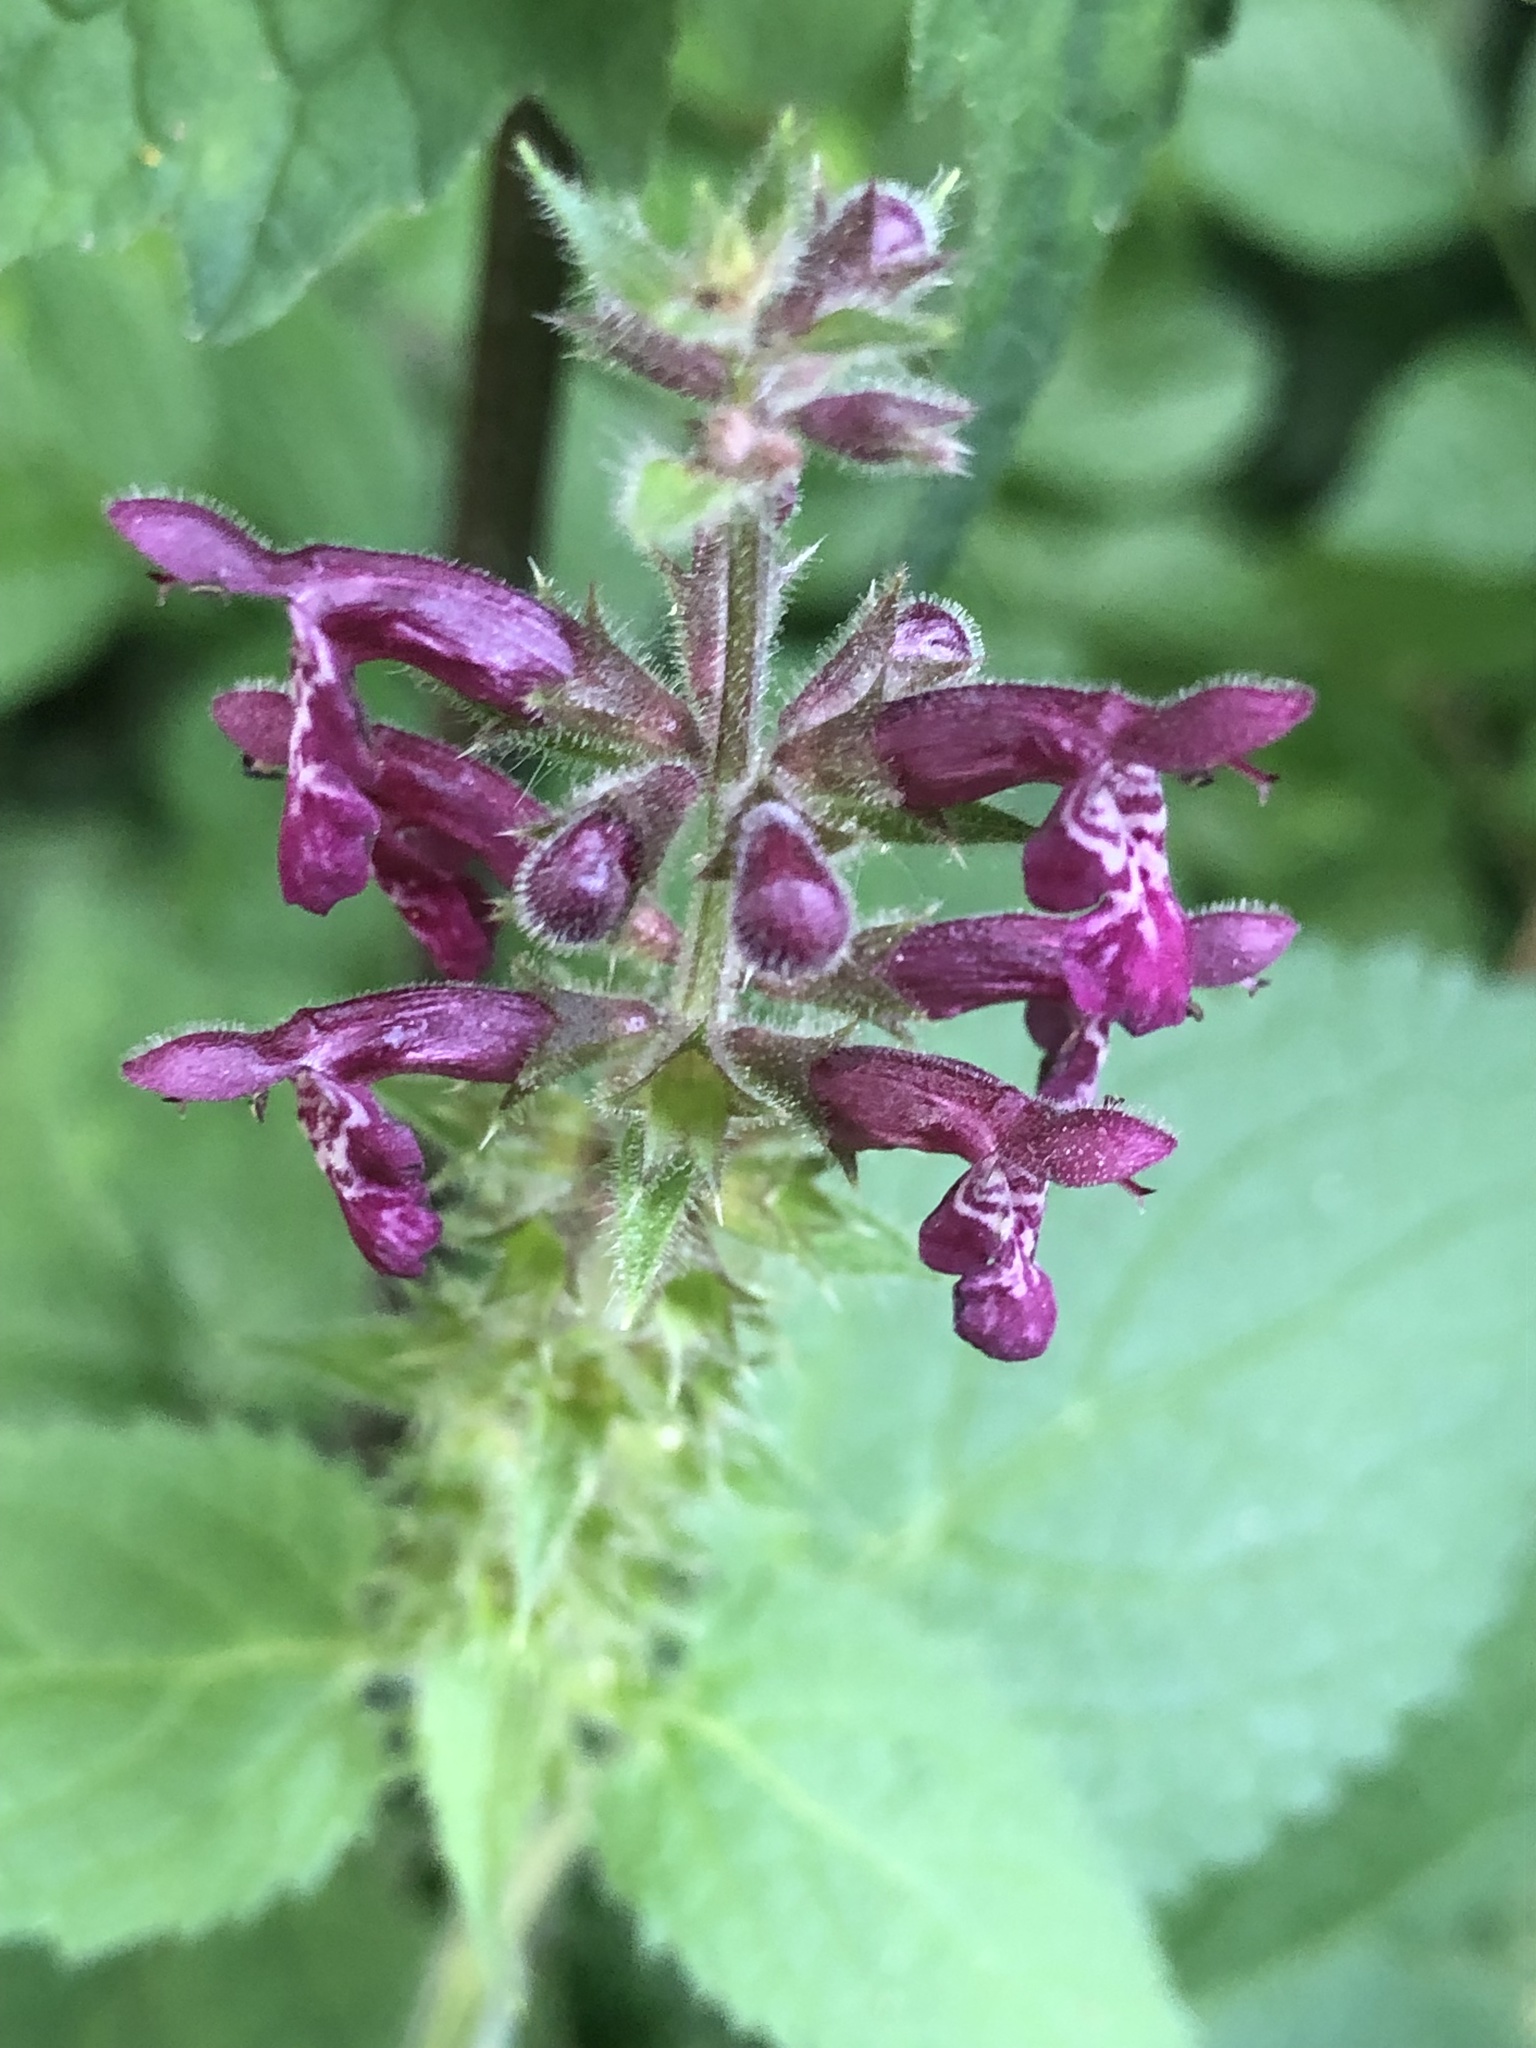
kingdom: Plantae
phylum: Tracheophyta
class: Magnoliopsida
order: Lamiales
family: Lamiaceae
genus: Stachys
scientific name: Stachys sylvatica
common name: Hedge woundwort
